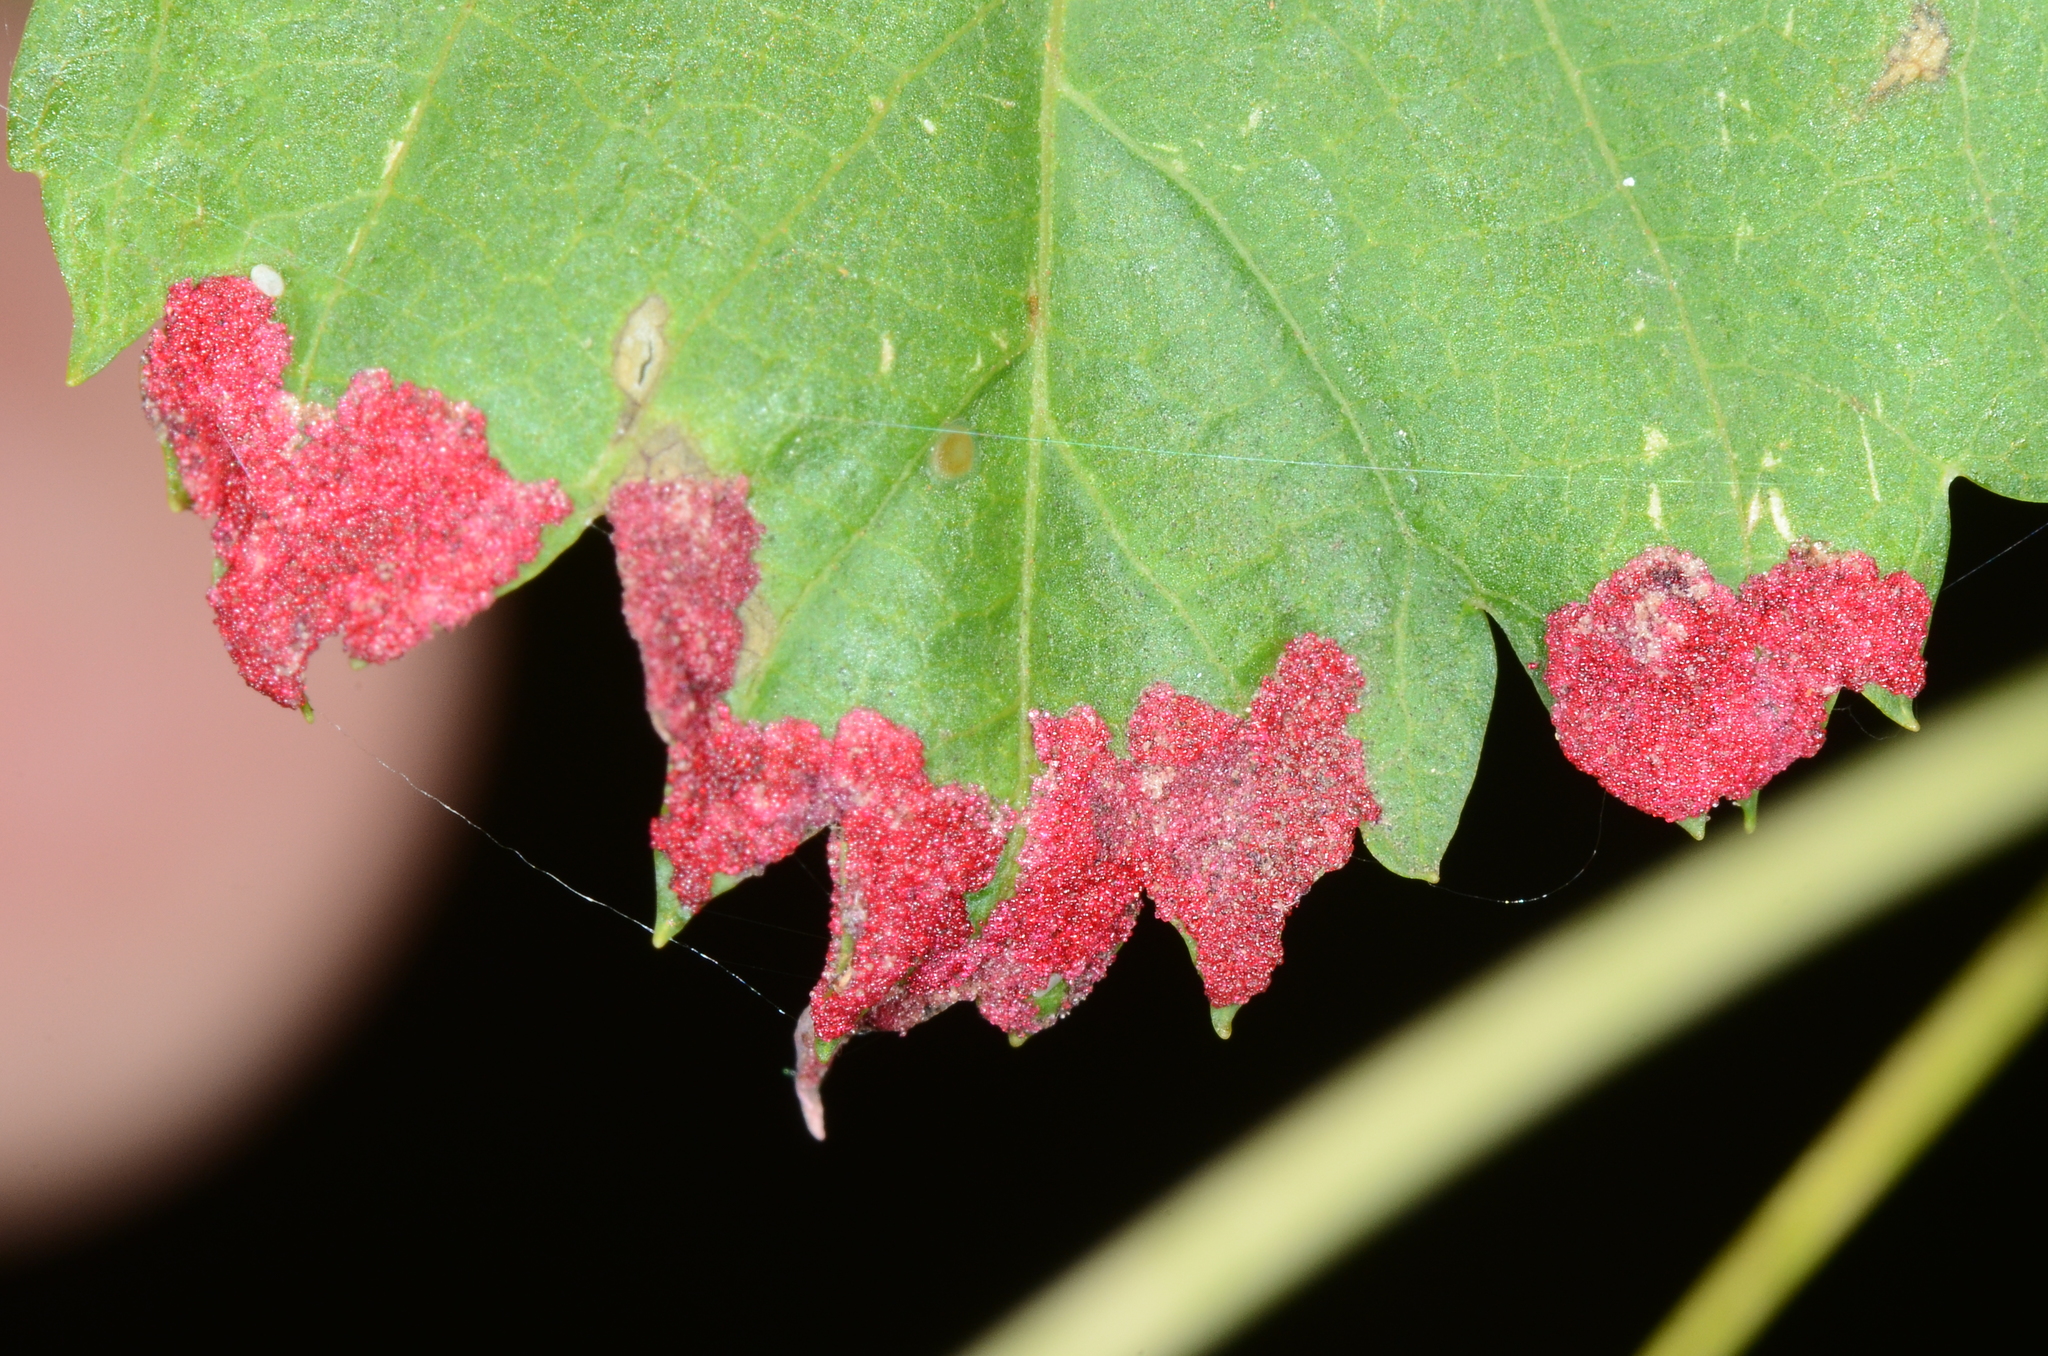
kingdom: Animalia
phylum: Arthropoda
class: Arachnida
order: Trombidiformes
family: Eriophyidae
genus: Aceria
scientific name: Aceria
